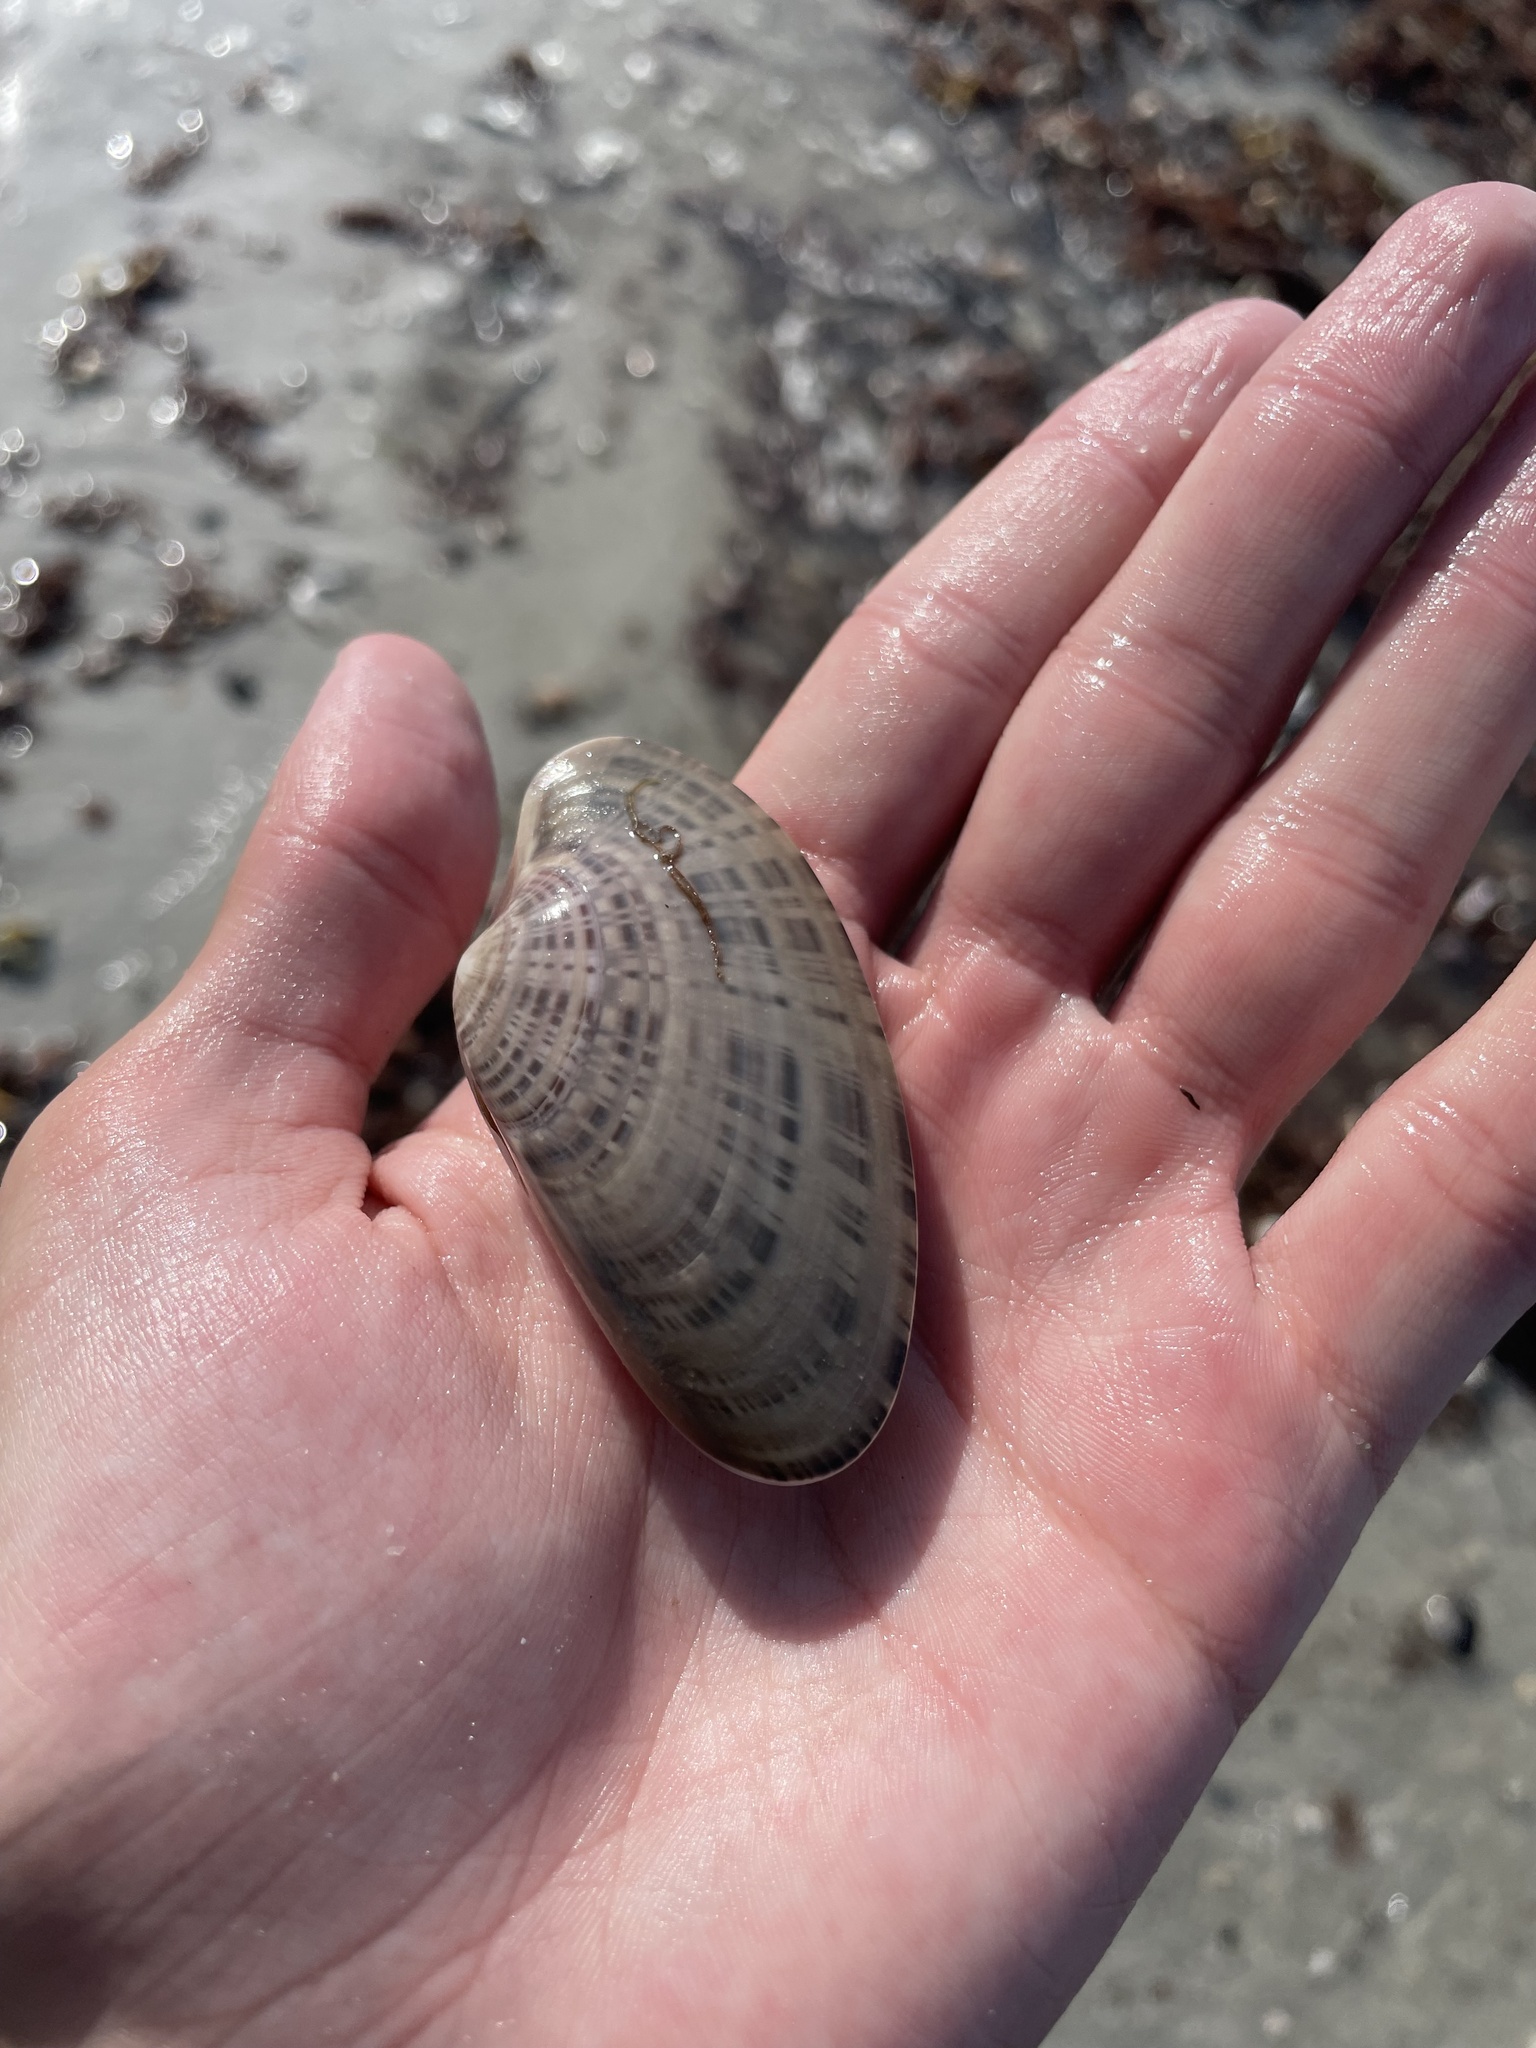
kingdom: Animalia
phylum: Mollusca
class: Bivalvia
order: Venerida
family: Veneridae
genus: Macrocallista
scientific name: Macrocallista nimbosa
